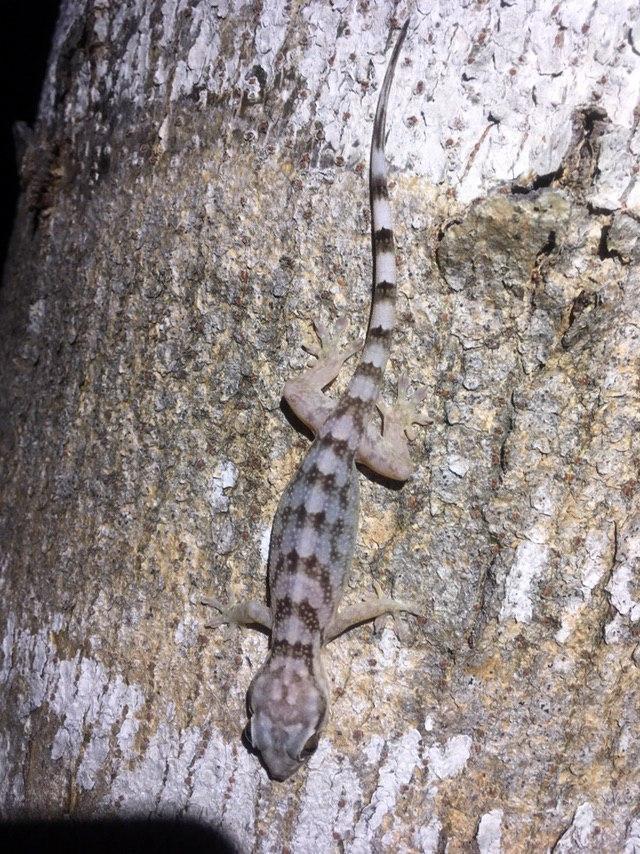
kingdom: Animalia
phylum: Chordata
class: Squamata
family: Gekkonidae
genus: Blaesodactylus
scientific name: Blaesodactylus sakalava
